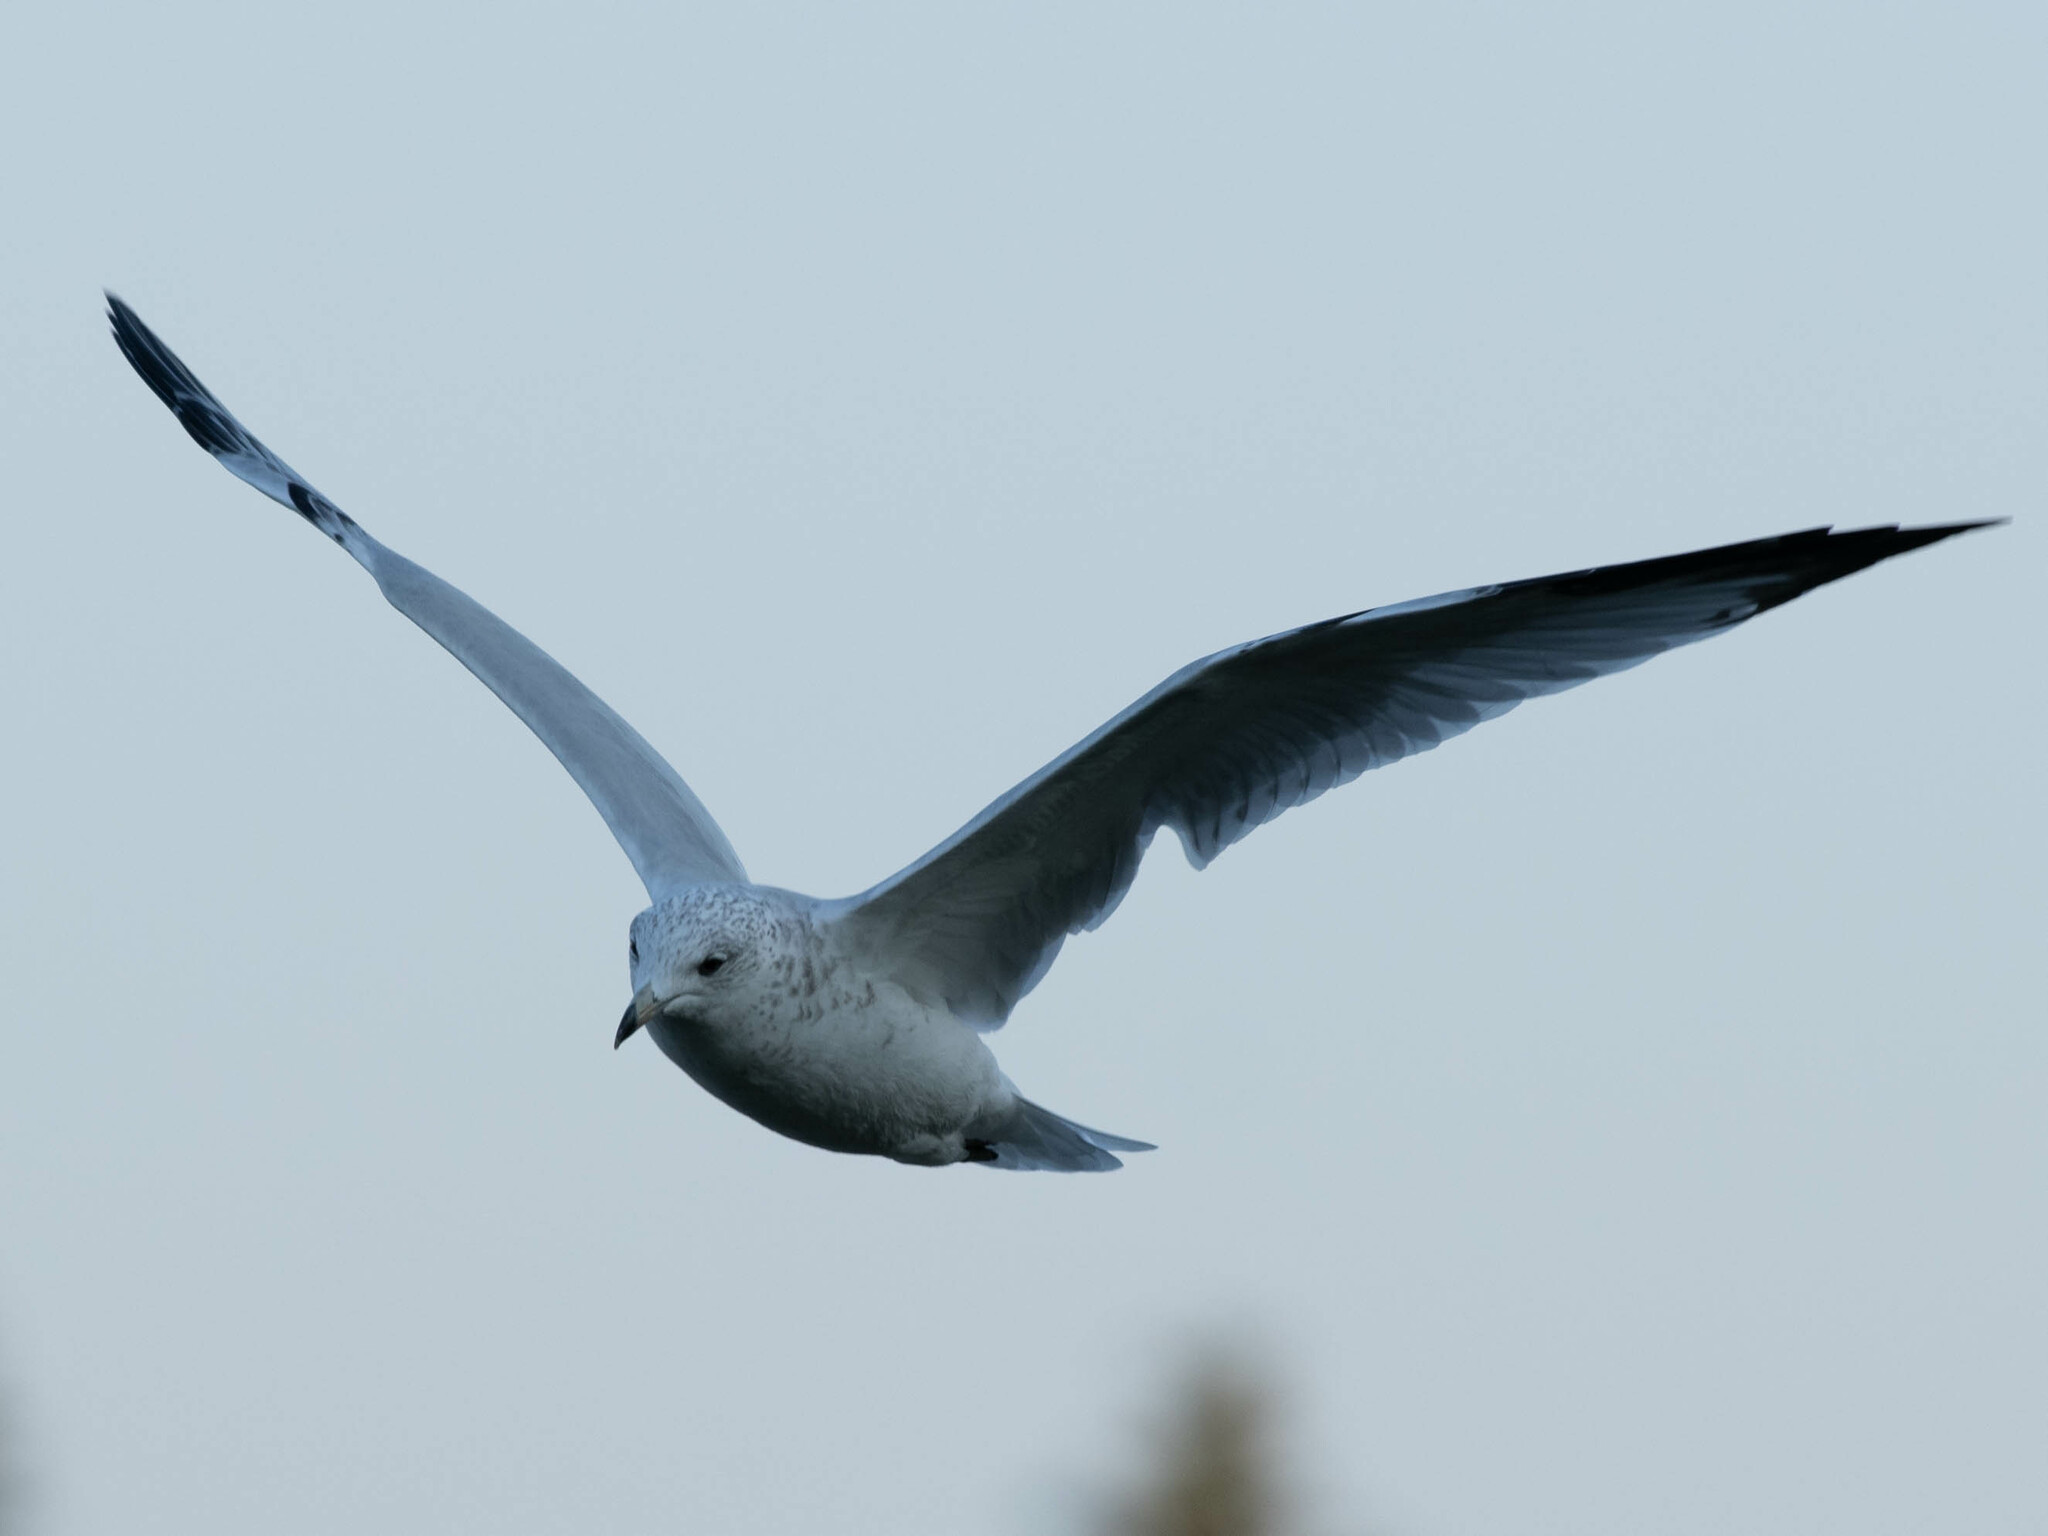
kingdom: Animalia
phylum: Chordata
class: Aves
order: Charadriiformes
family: Laridae
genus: Larus
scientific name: Larus delawarensis
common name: Ring-billed gull
